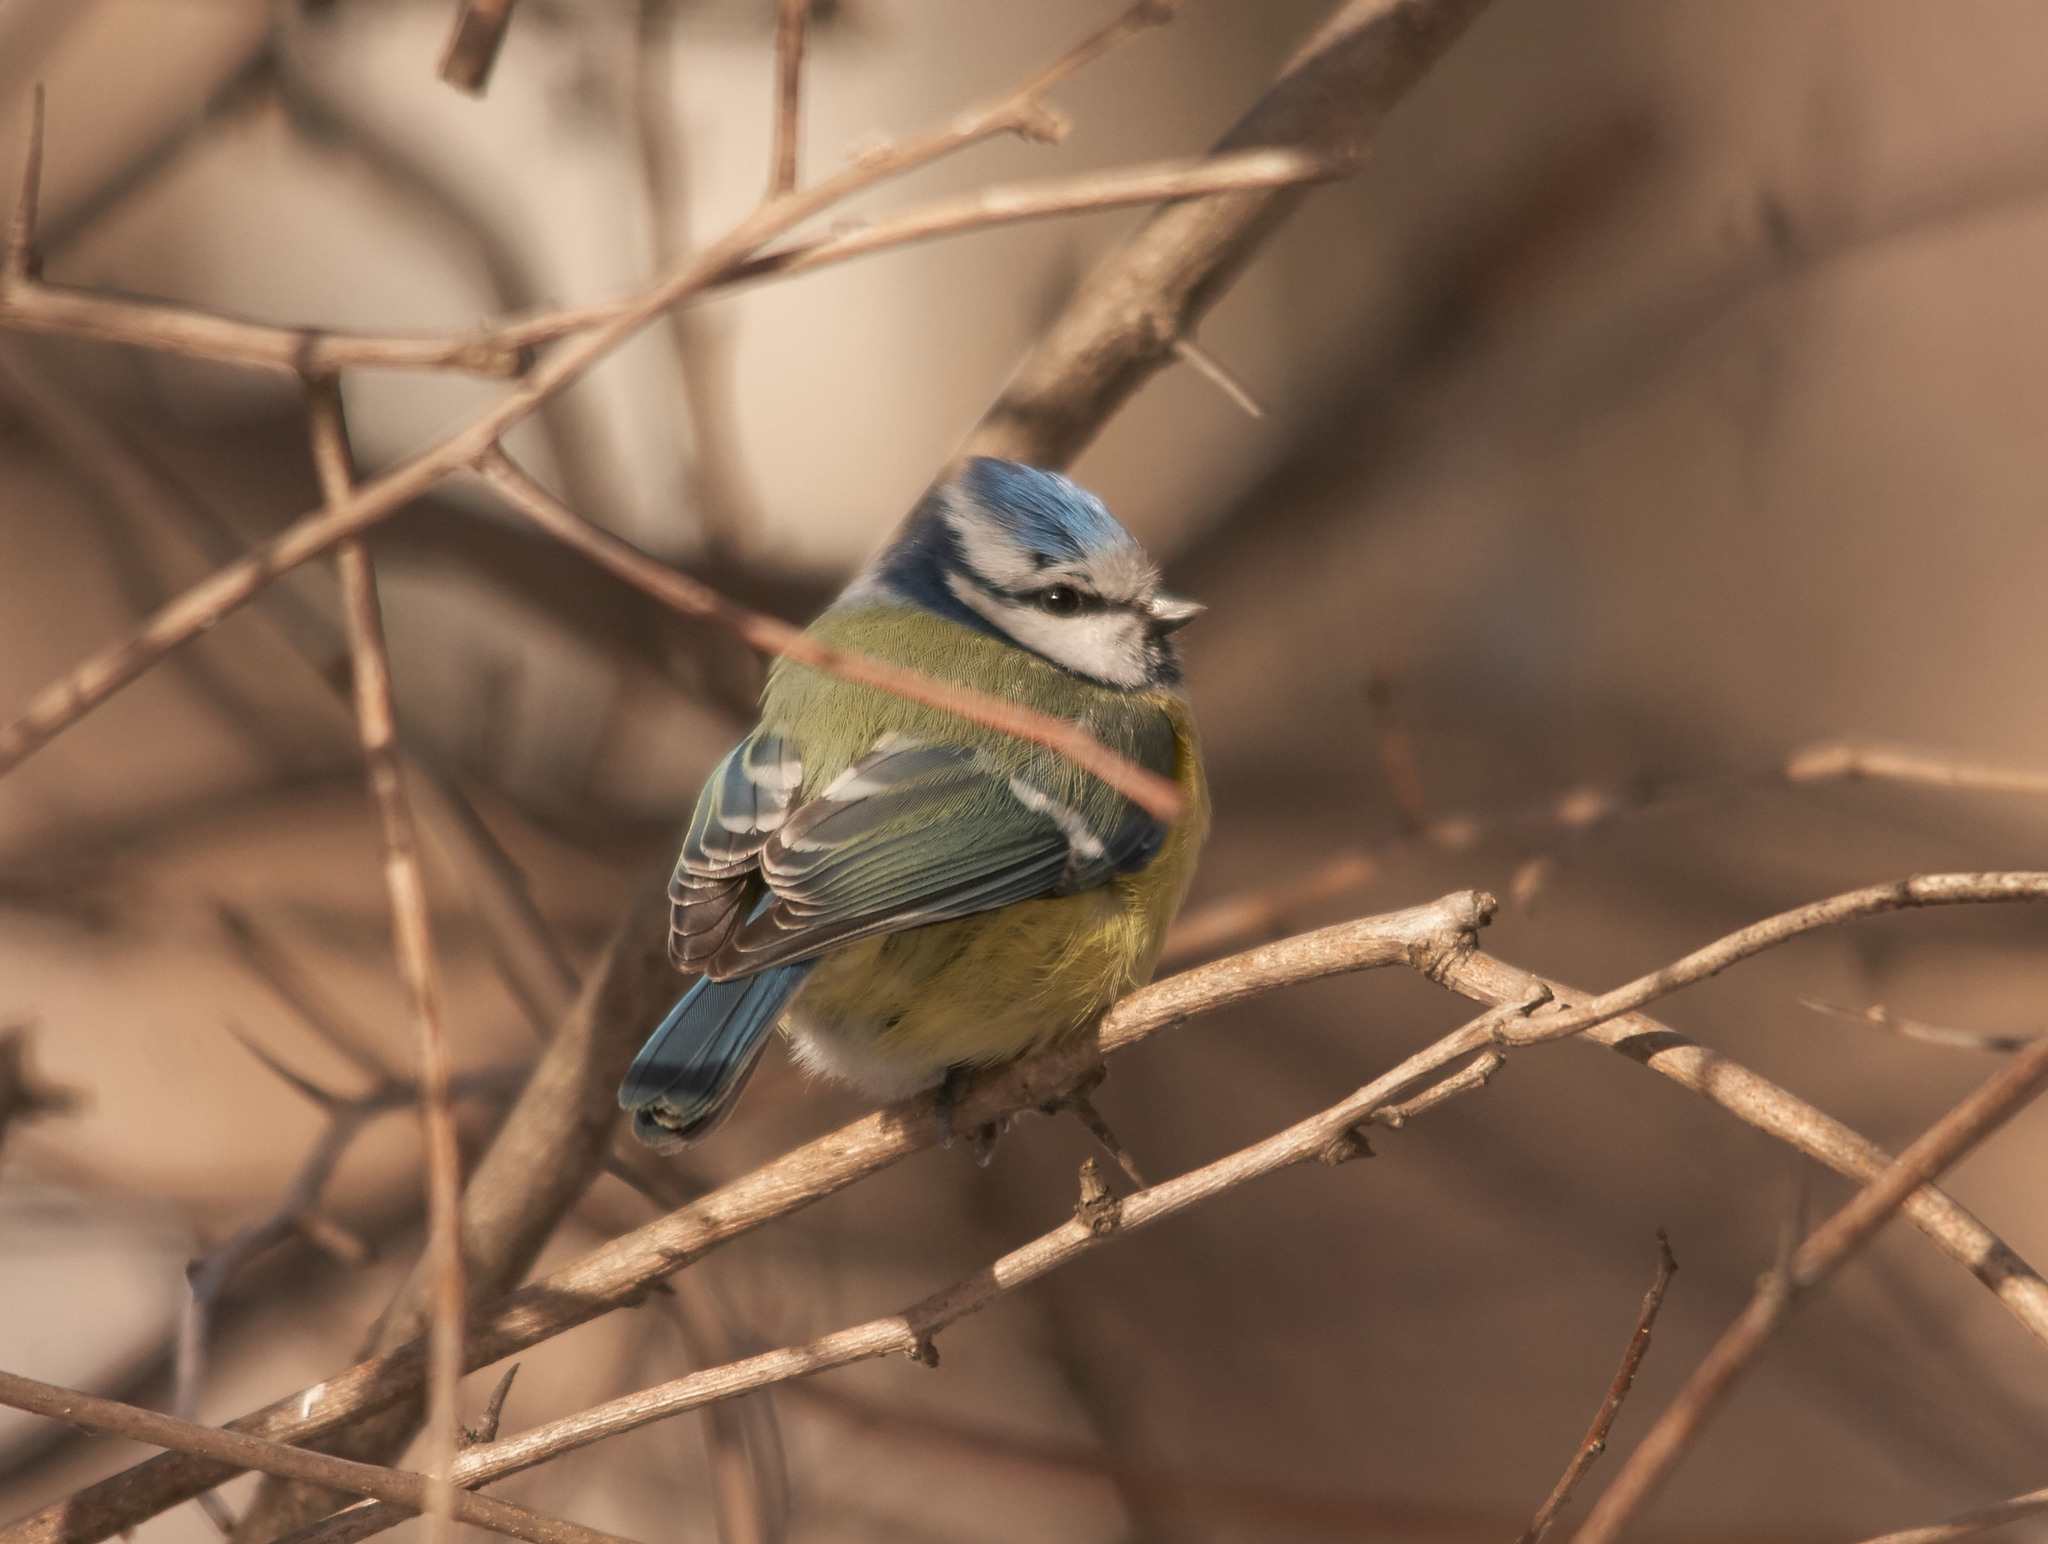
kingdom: Animalia
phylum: Chordata
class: Aves
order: Passeriformes
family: Paridae
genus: Cyanistes
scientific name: Cyanistes caeruleus
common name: Eurasian blue tit
